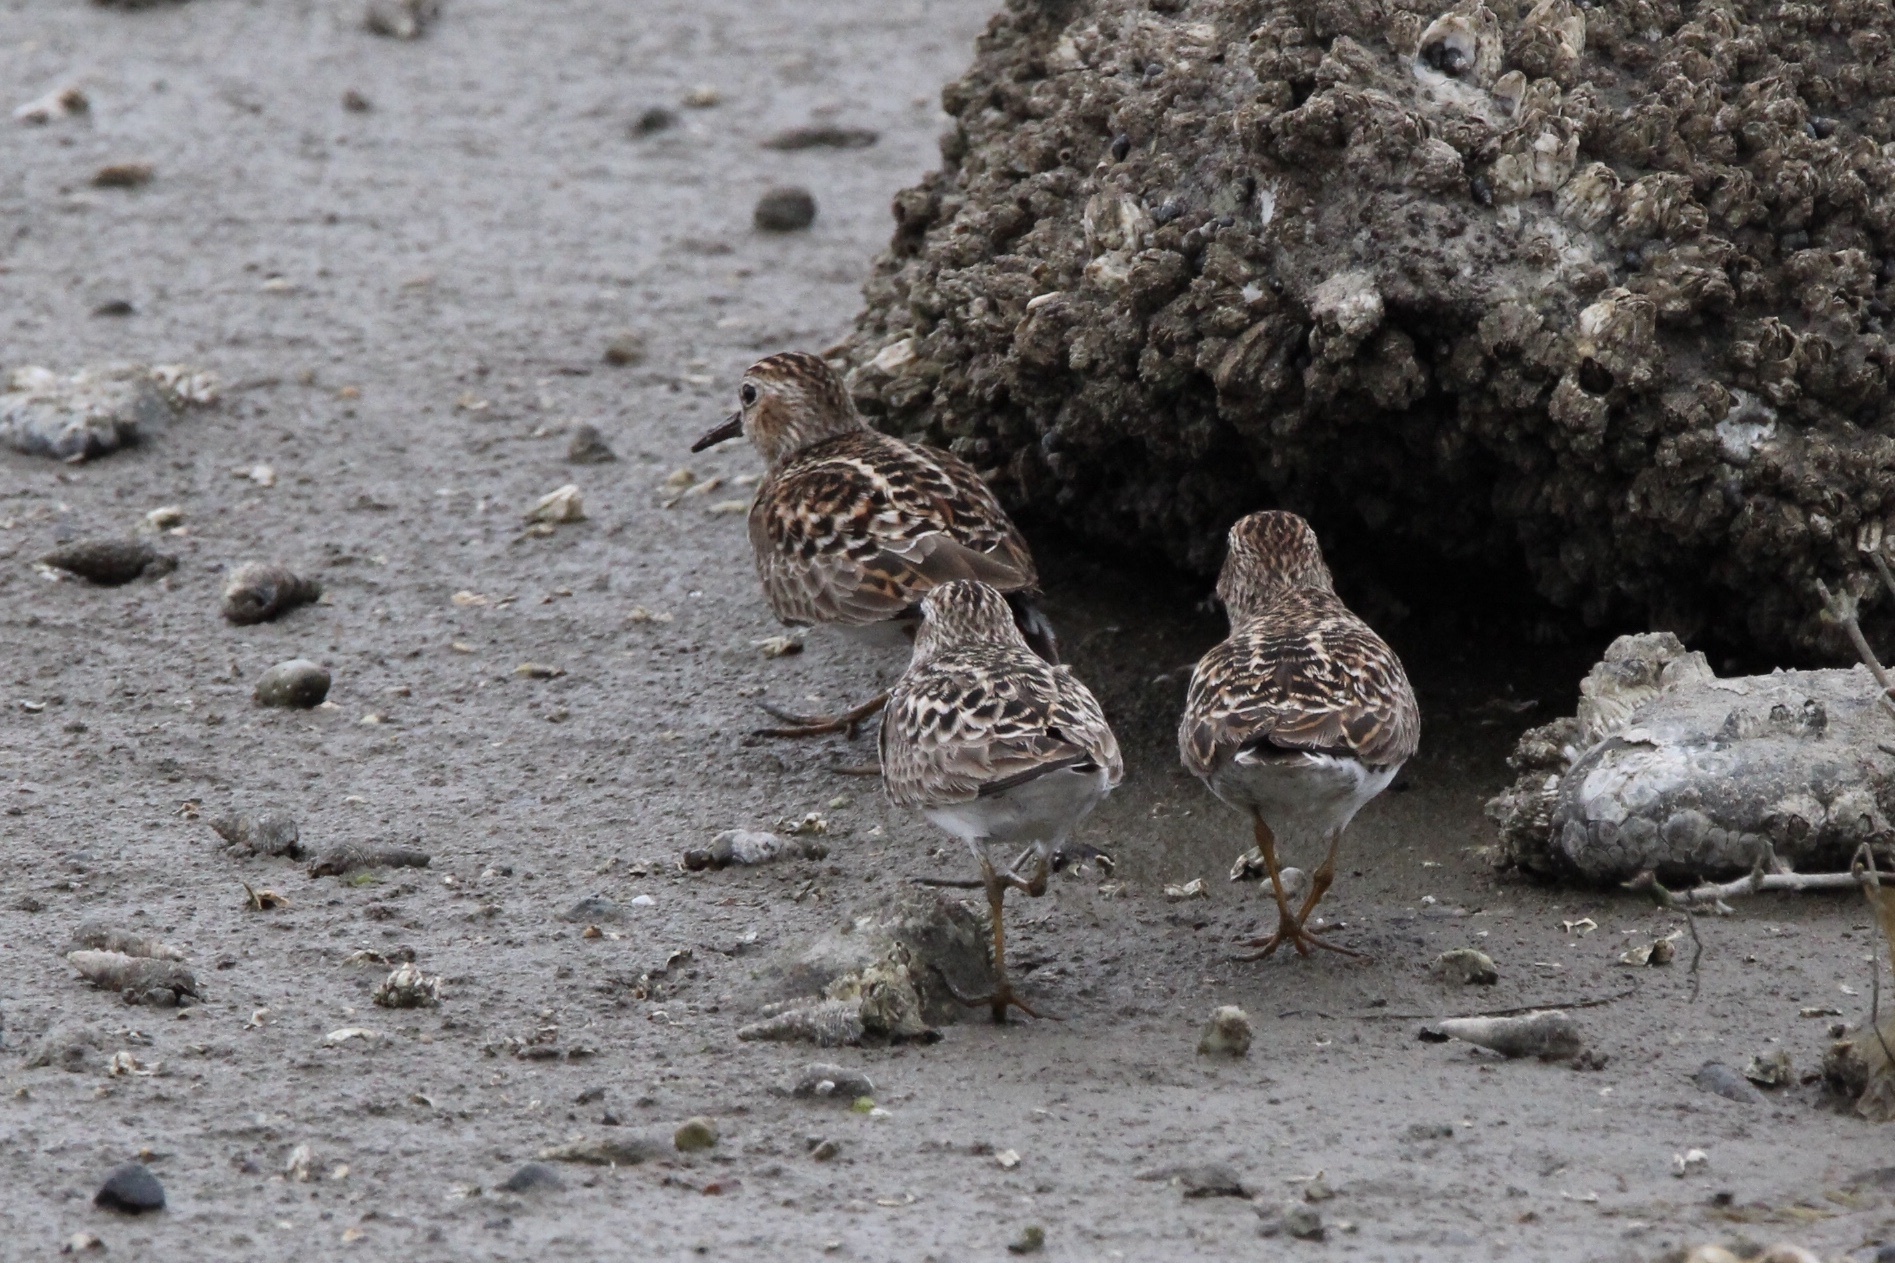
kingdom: Animalia
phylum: Chordata
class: Aves
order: Charadriiformes
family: Scolopacidae
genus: Calidris
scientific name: Calidris minutilla
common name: Least sandpiper
